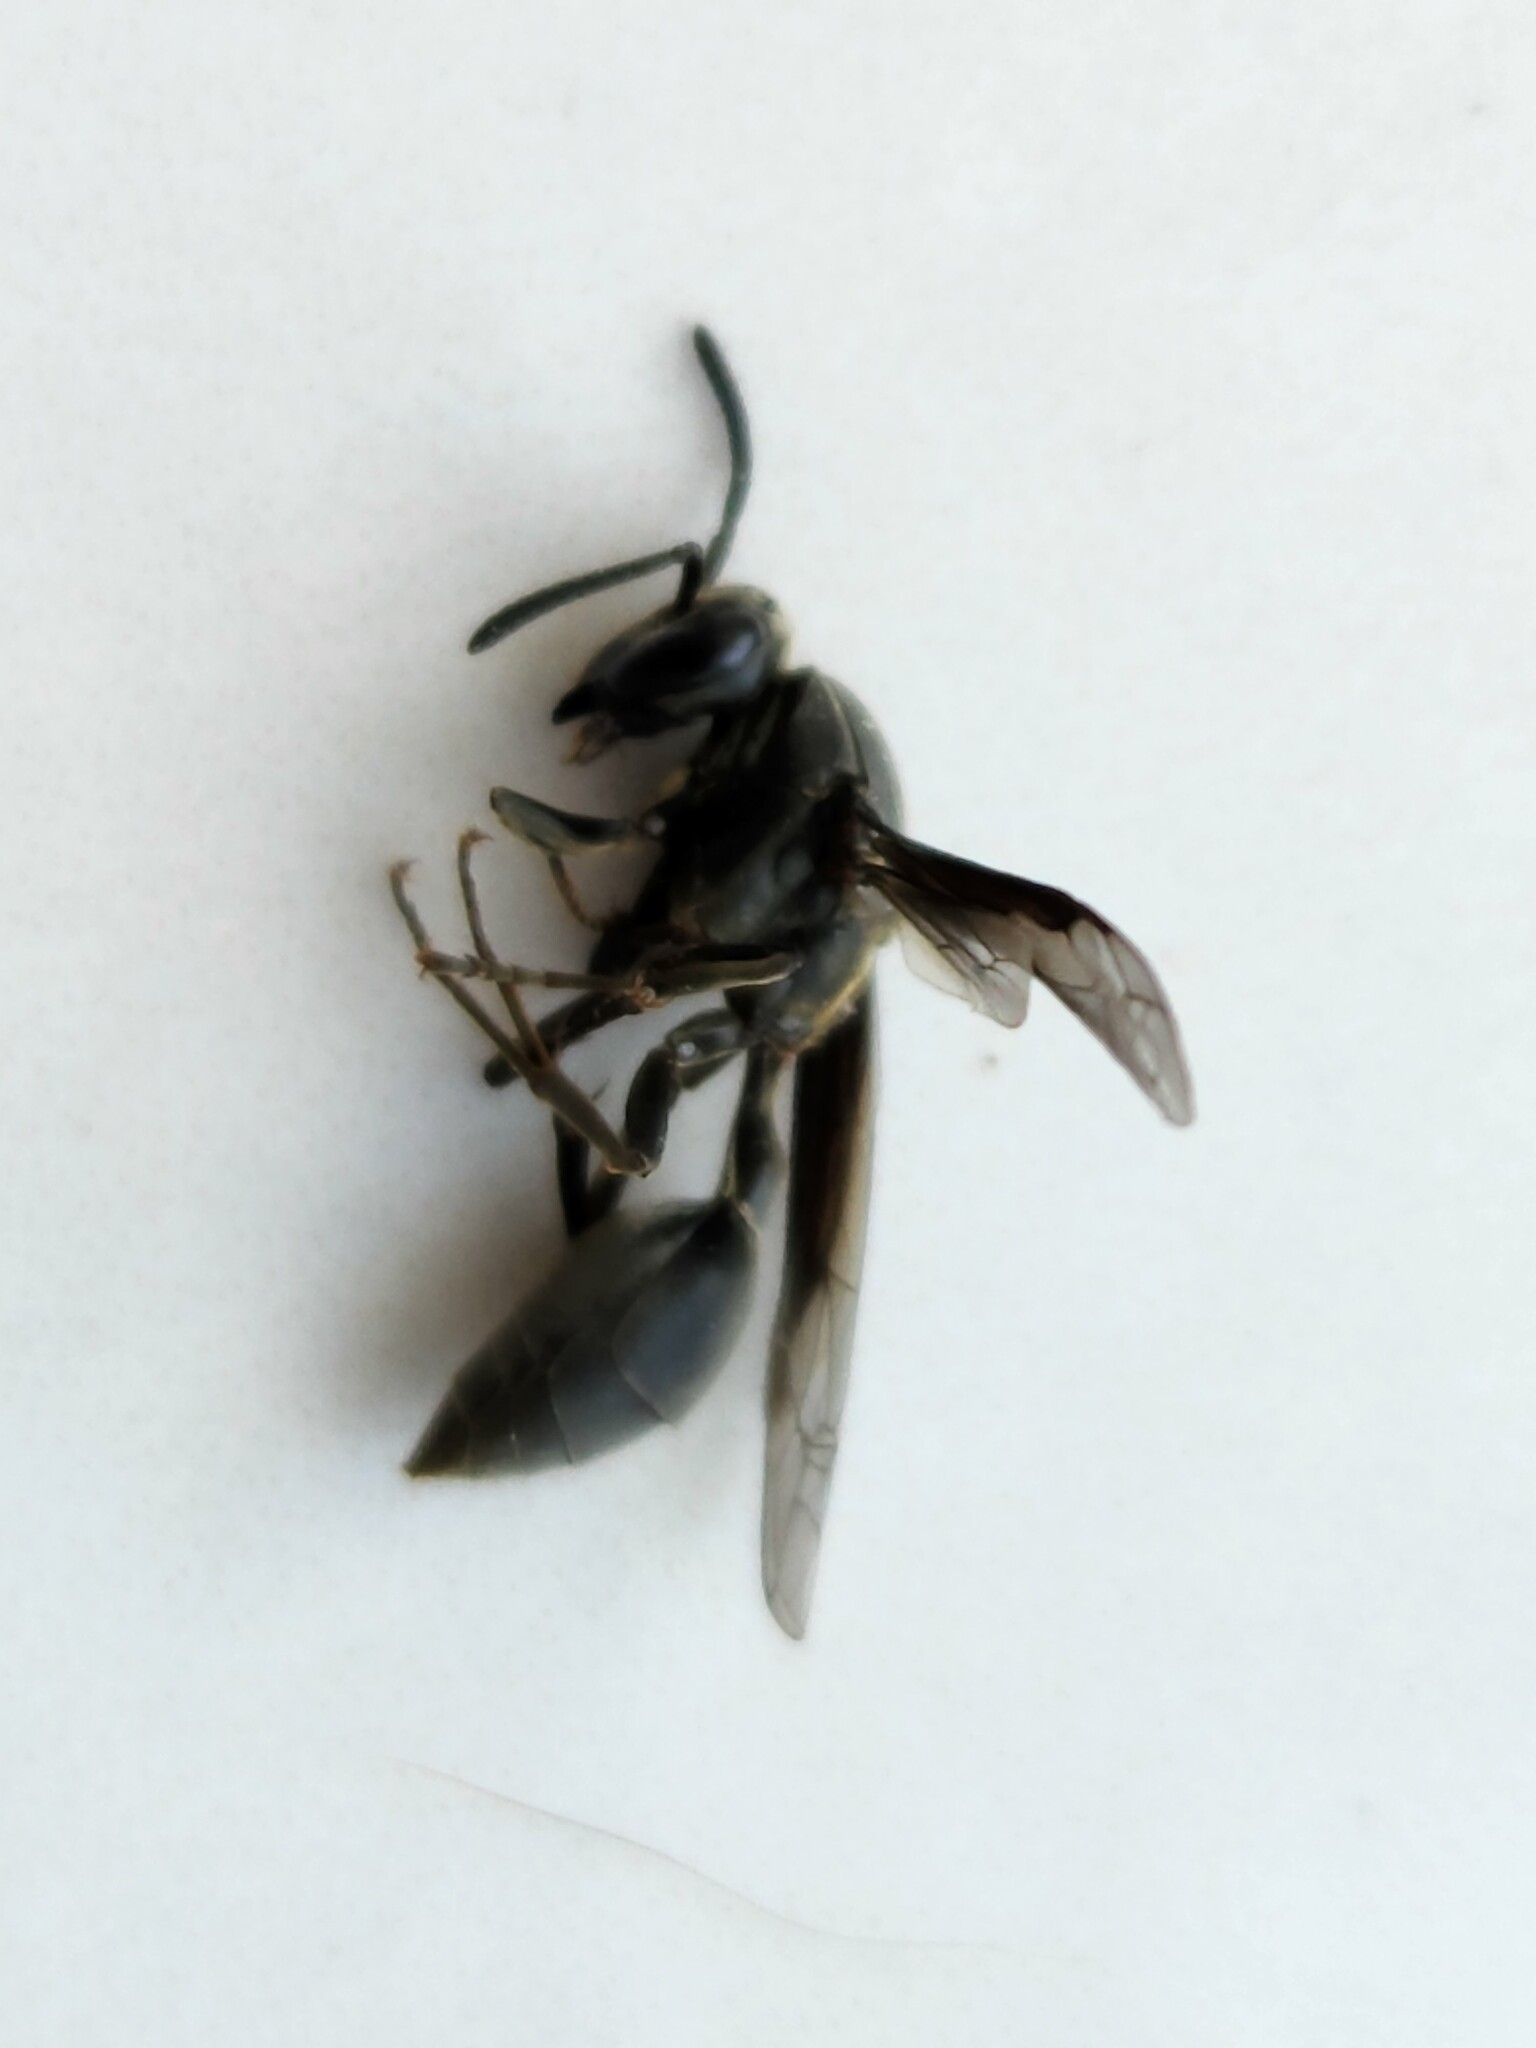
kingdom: Animalia
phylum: Arthropoda
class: Insecta
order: Hymenoptera
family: Eumenidae
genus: Polybia
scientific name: Polybia ignobilis
